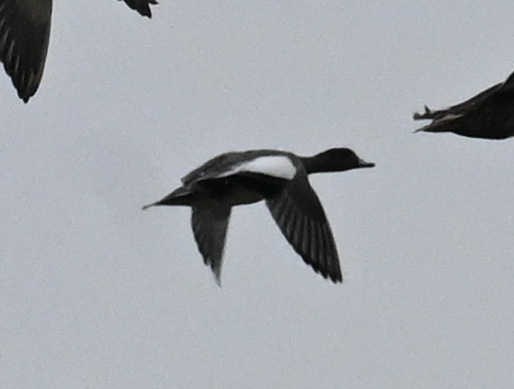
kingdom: Animalia
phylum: Chordata
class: Aves
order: Anseriformes
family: Anatidae
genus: Mareca
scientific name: Mareca penelope
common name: Eurasian wigeon
